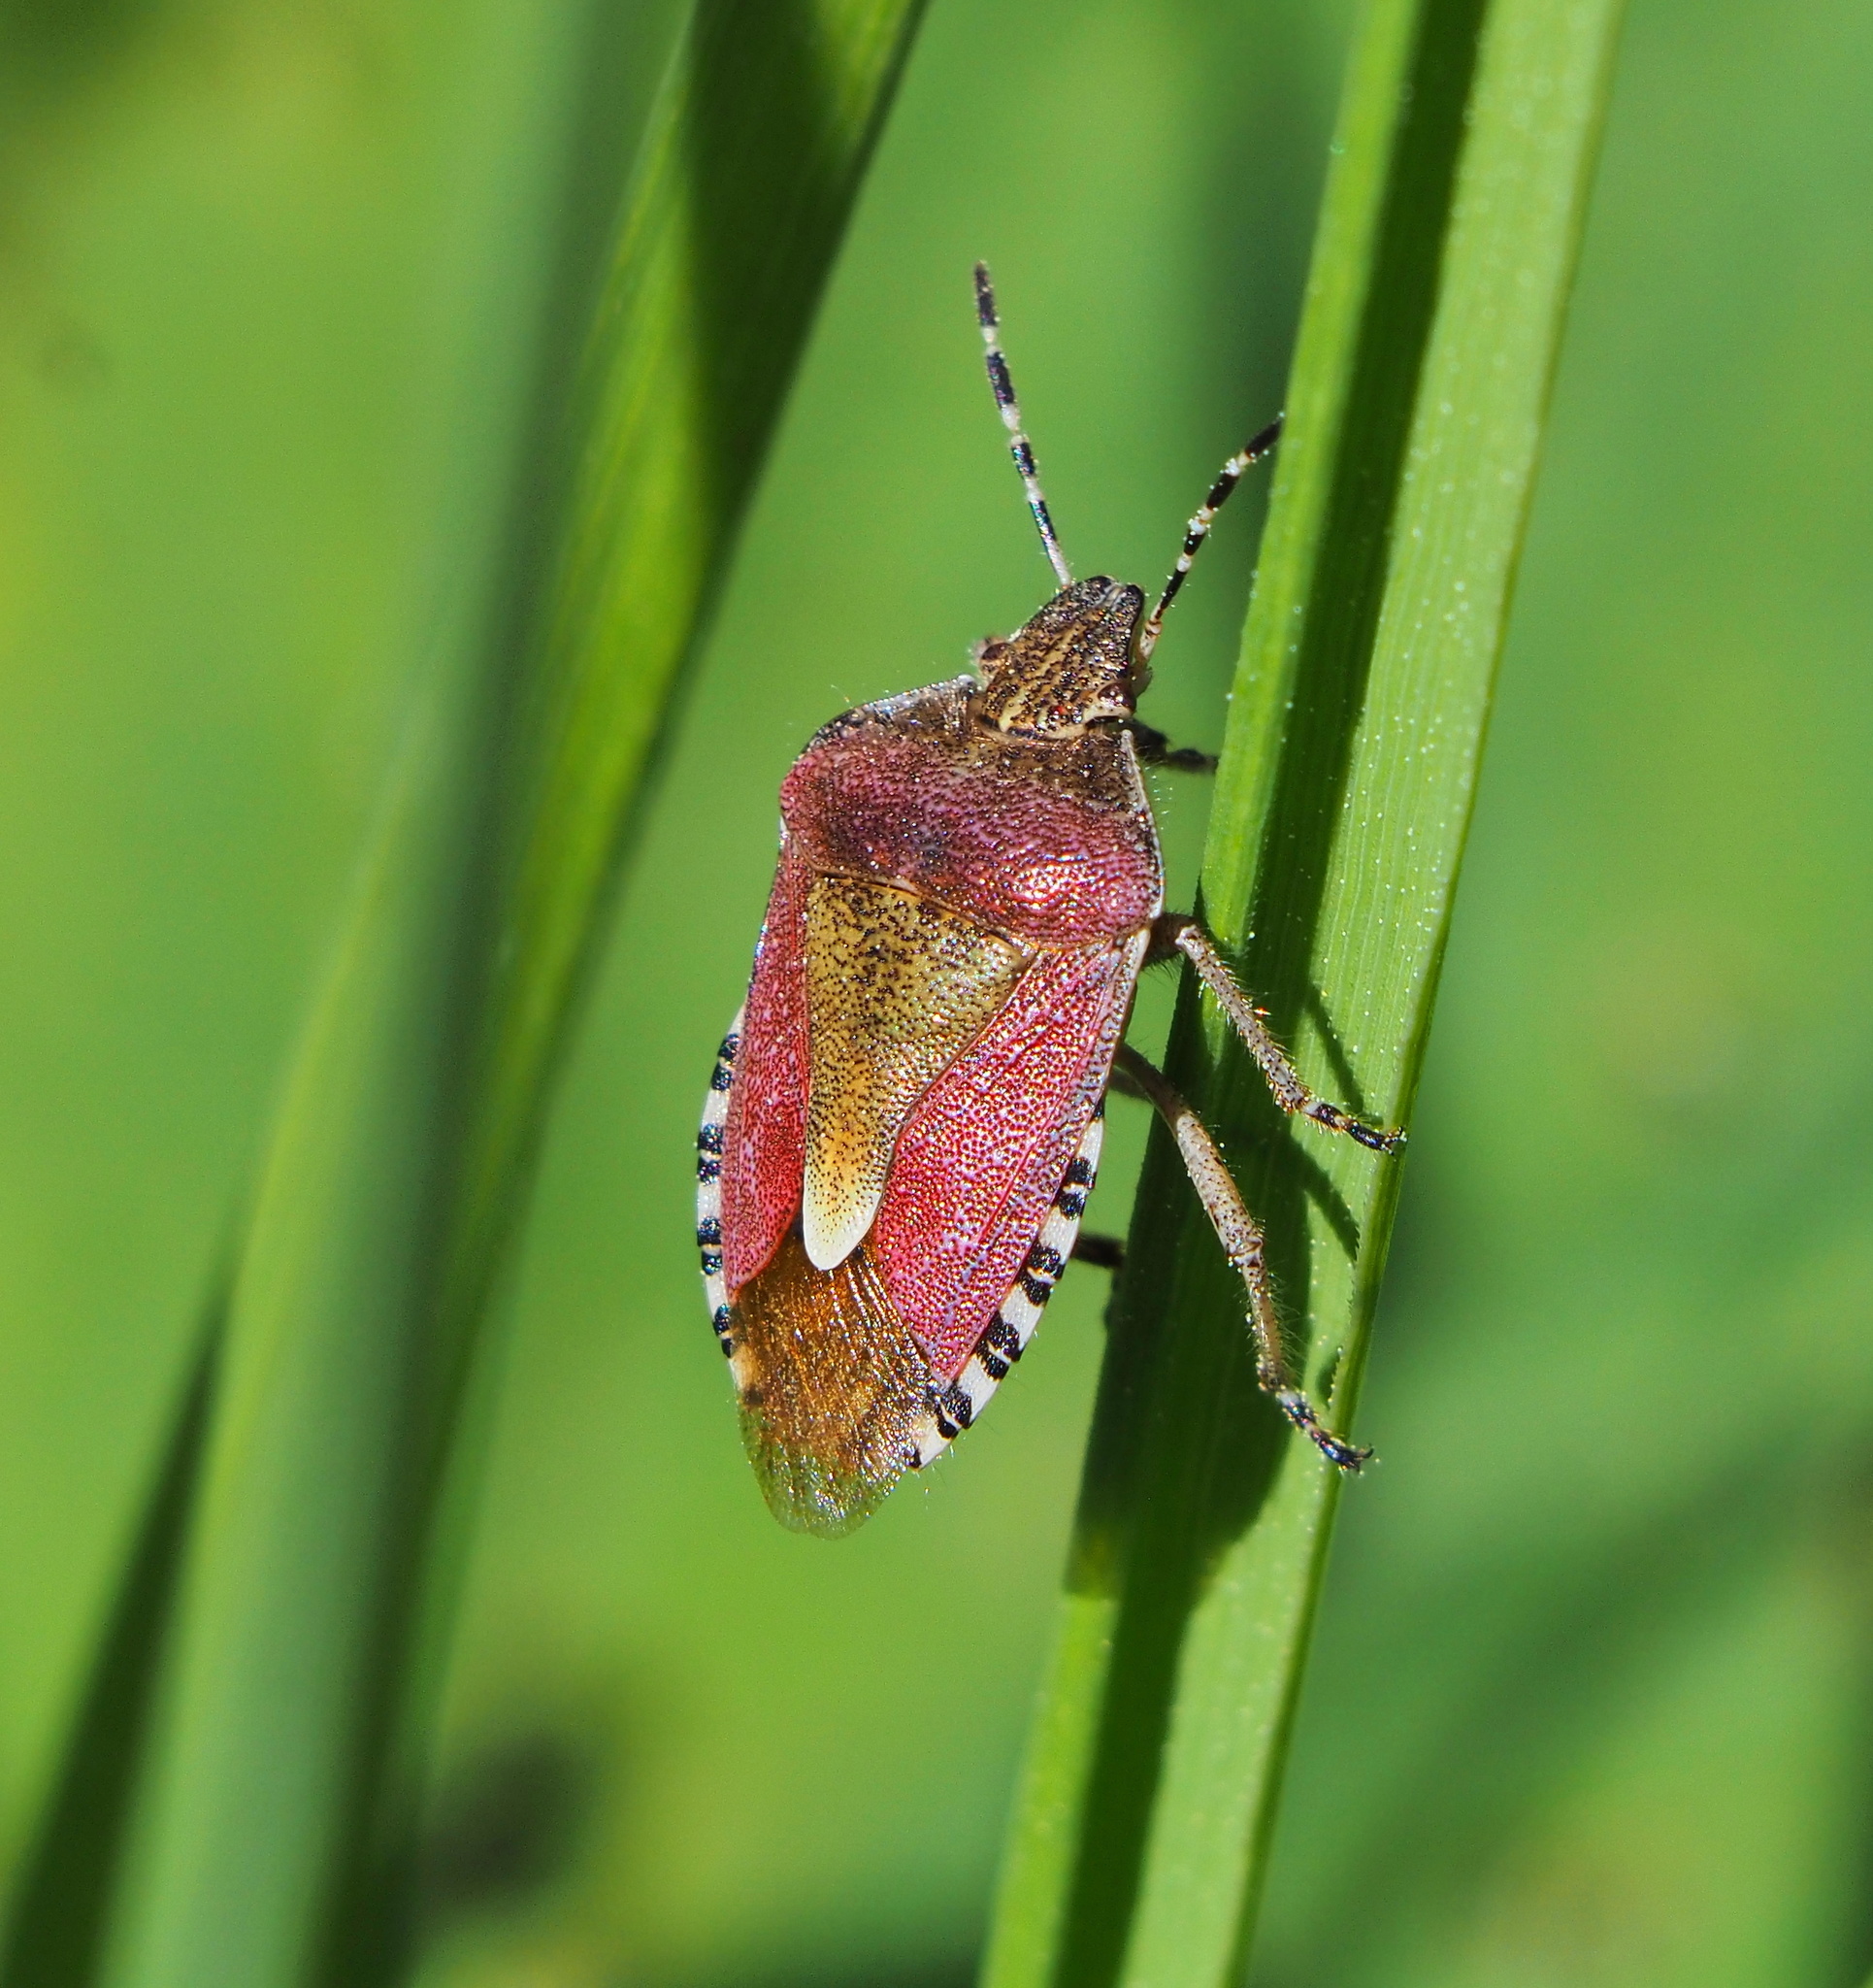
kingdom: Animalia
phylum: Arthropoda
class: Insecta
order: Hemiptera
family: Pentatomidae
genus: Dolycoris
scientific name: Dolycoris baccarum
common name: Sloe bug
